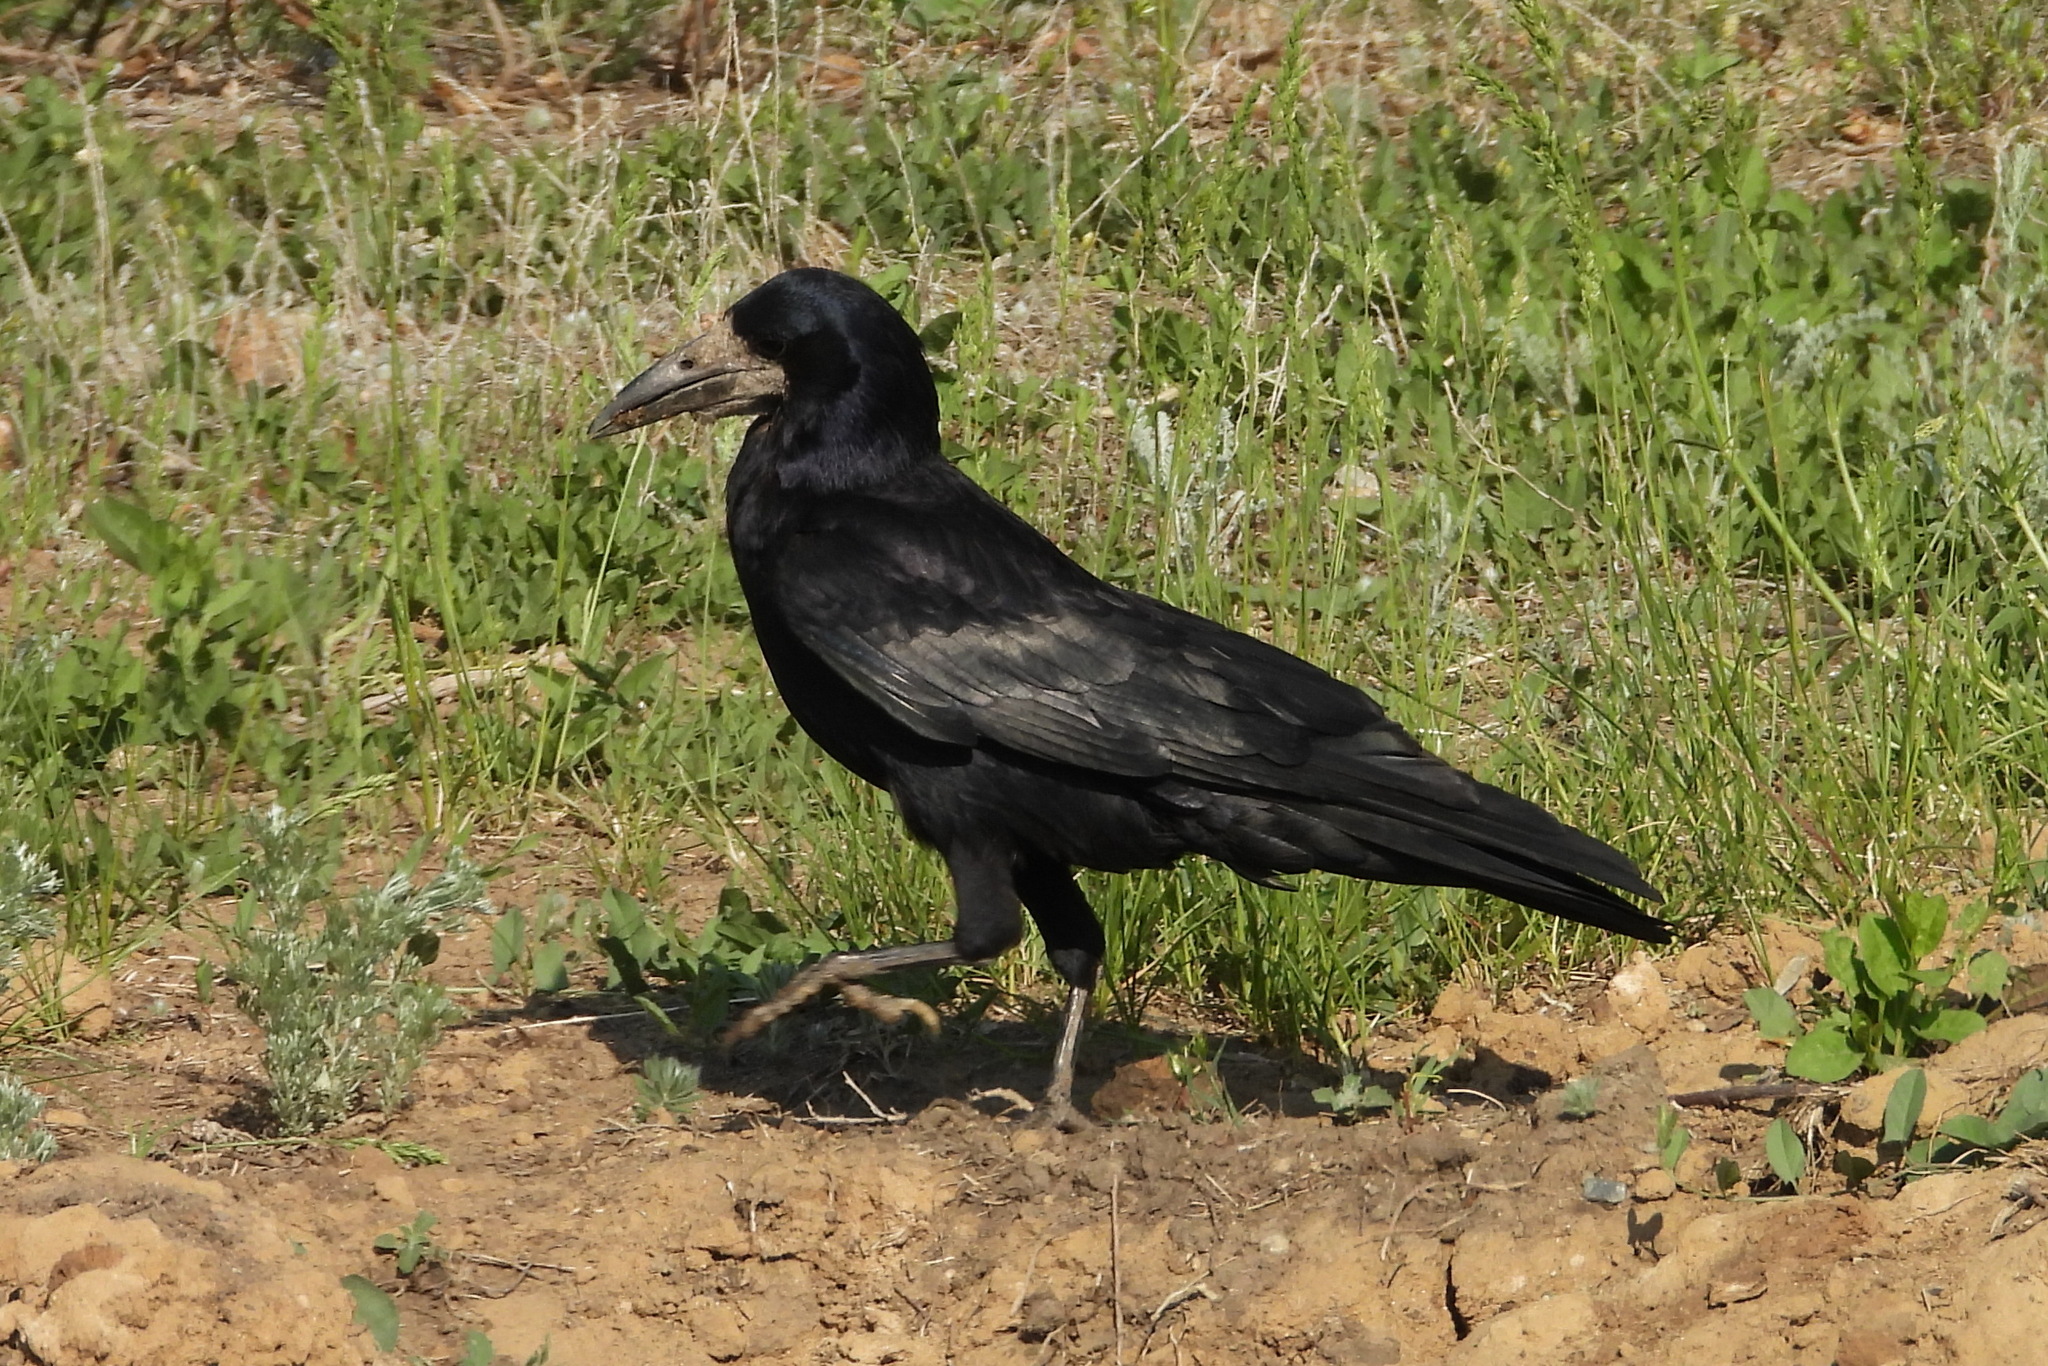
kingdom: Animalia
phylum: Chordata
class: Aves
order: Passeriformes
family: Corvidae
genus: Corvus
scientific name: Corvus frugilegus
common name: Rook
